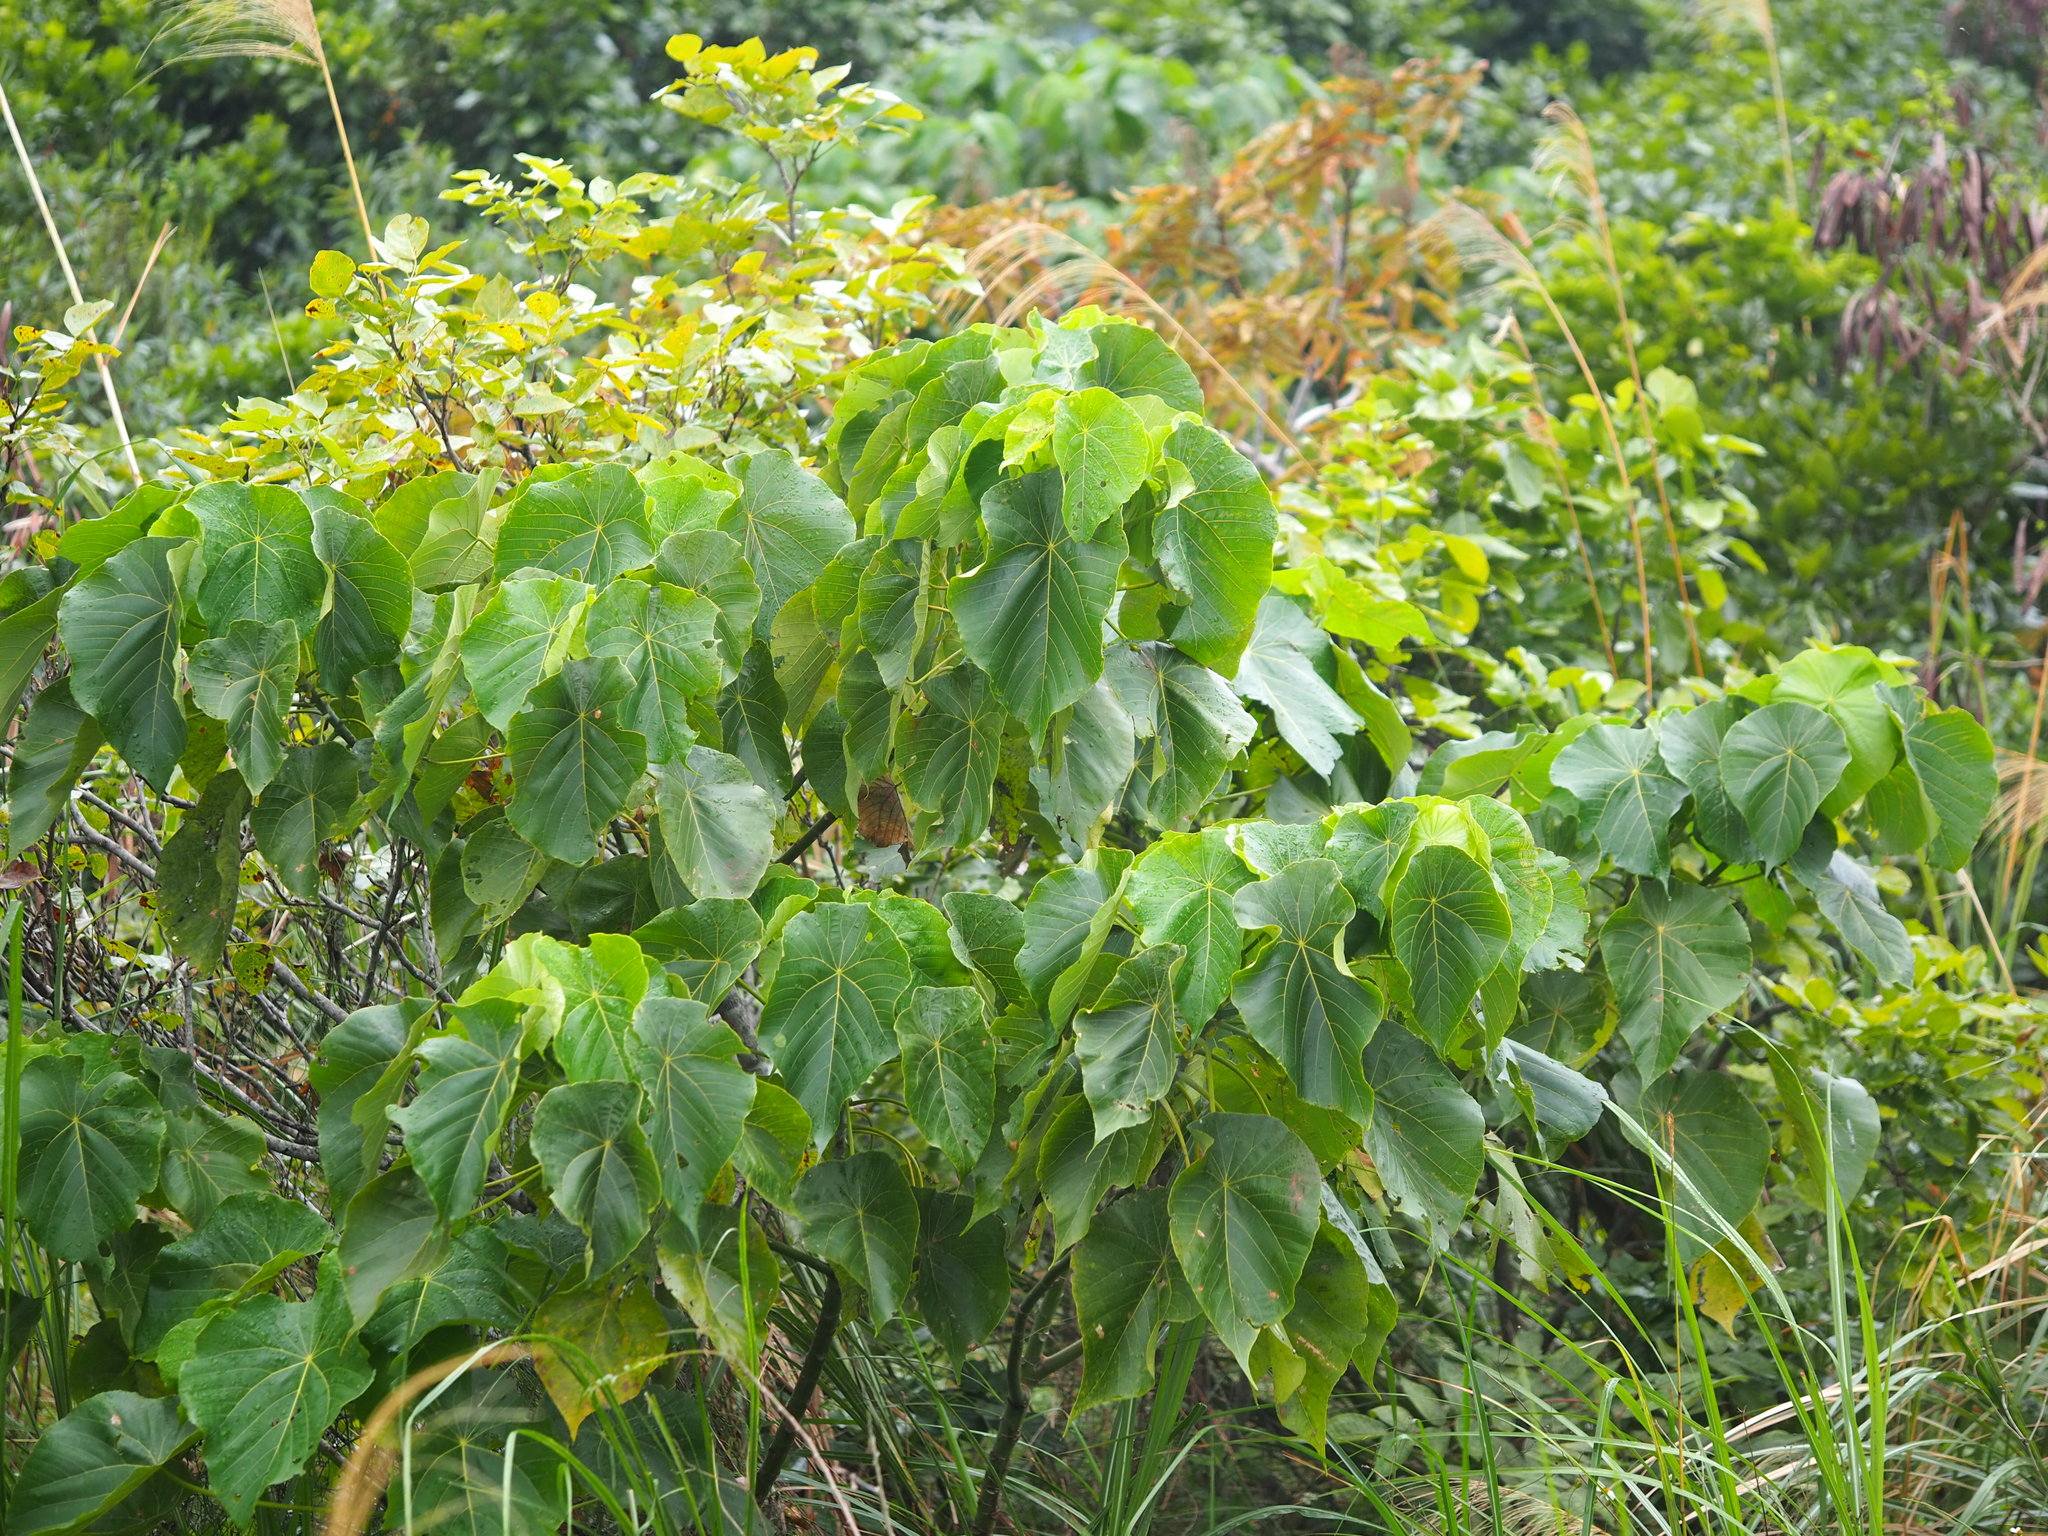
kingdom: Plantae
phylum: Tracheophyta
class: Magnoliopsida
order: Malpighiales
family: Euphorbiaceae
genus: Macaranga
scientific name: Macaranga tanarius
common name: Parasol leaf tree
